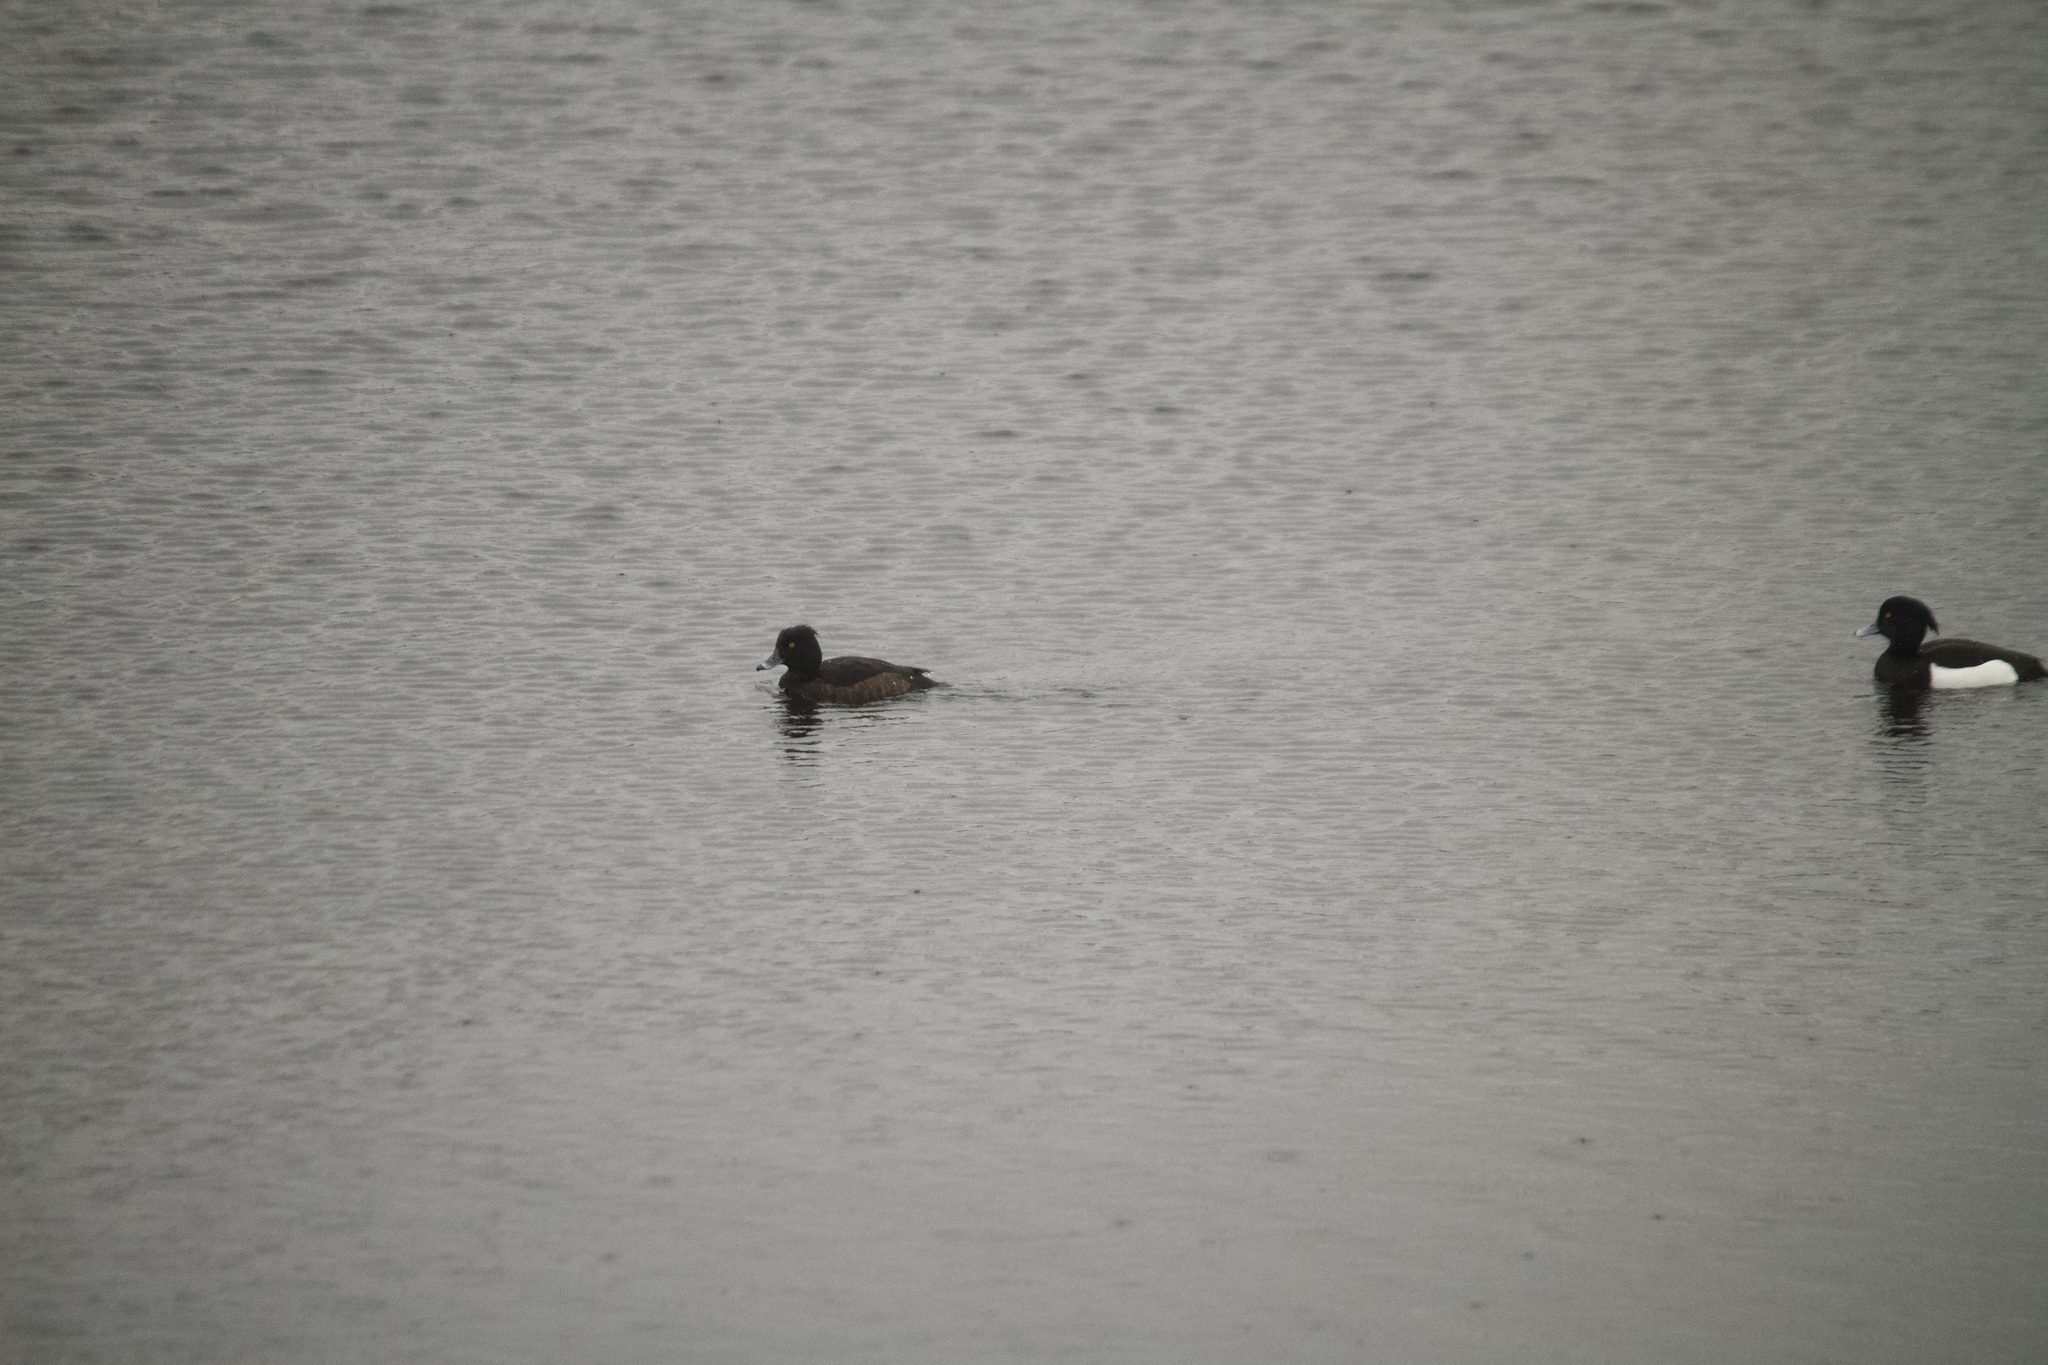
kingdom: Animalia
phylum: Chordata
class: Aves
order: Anseriformes
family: Anatidae
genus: Aythya
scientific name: Aythya fuligula
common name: Tufted duck
